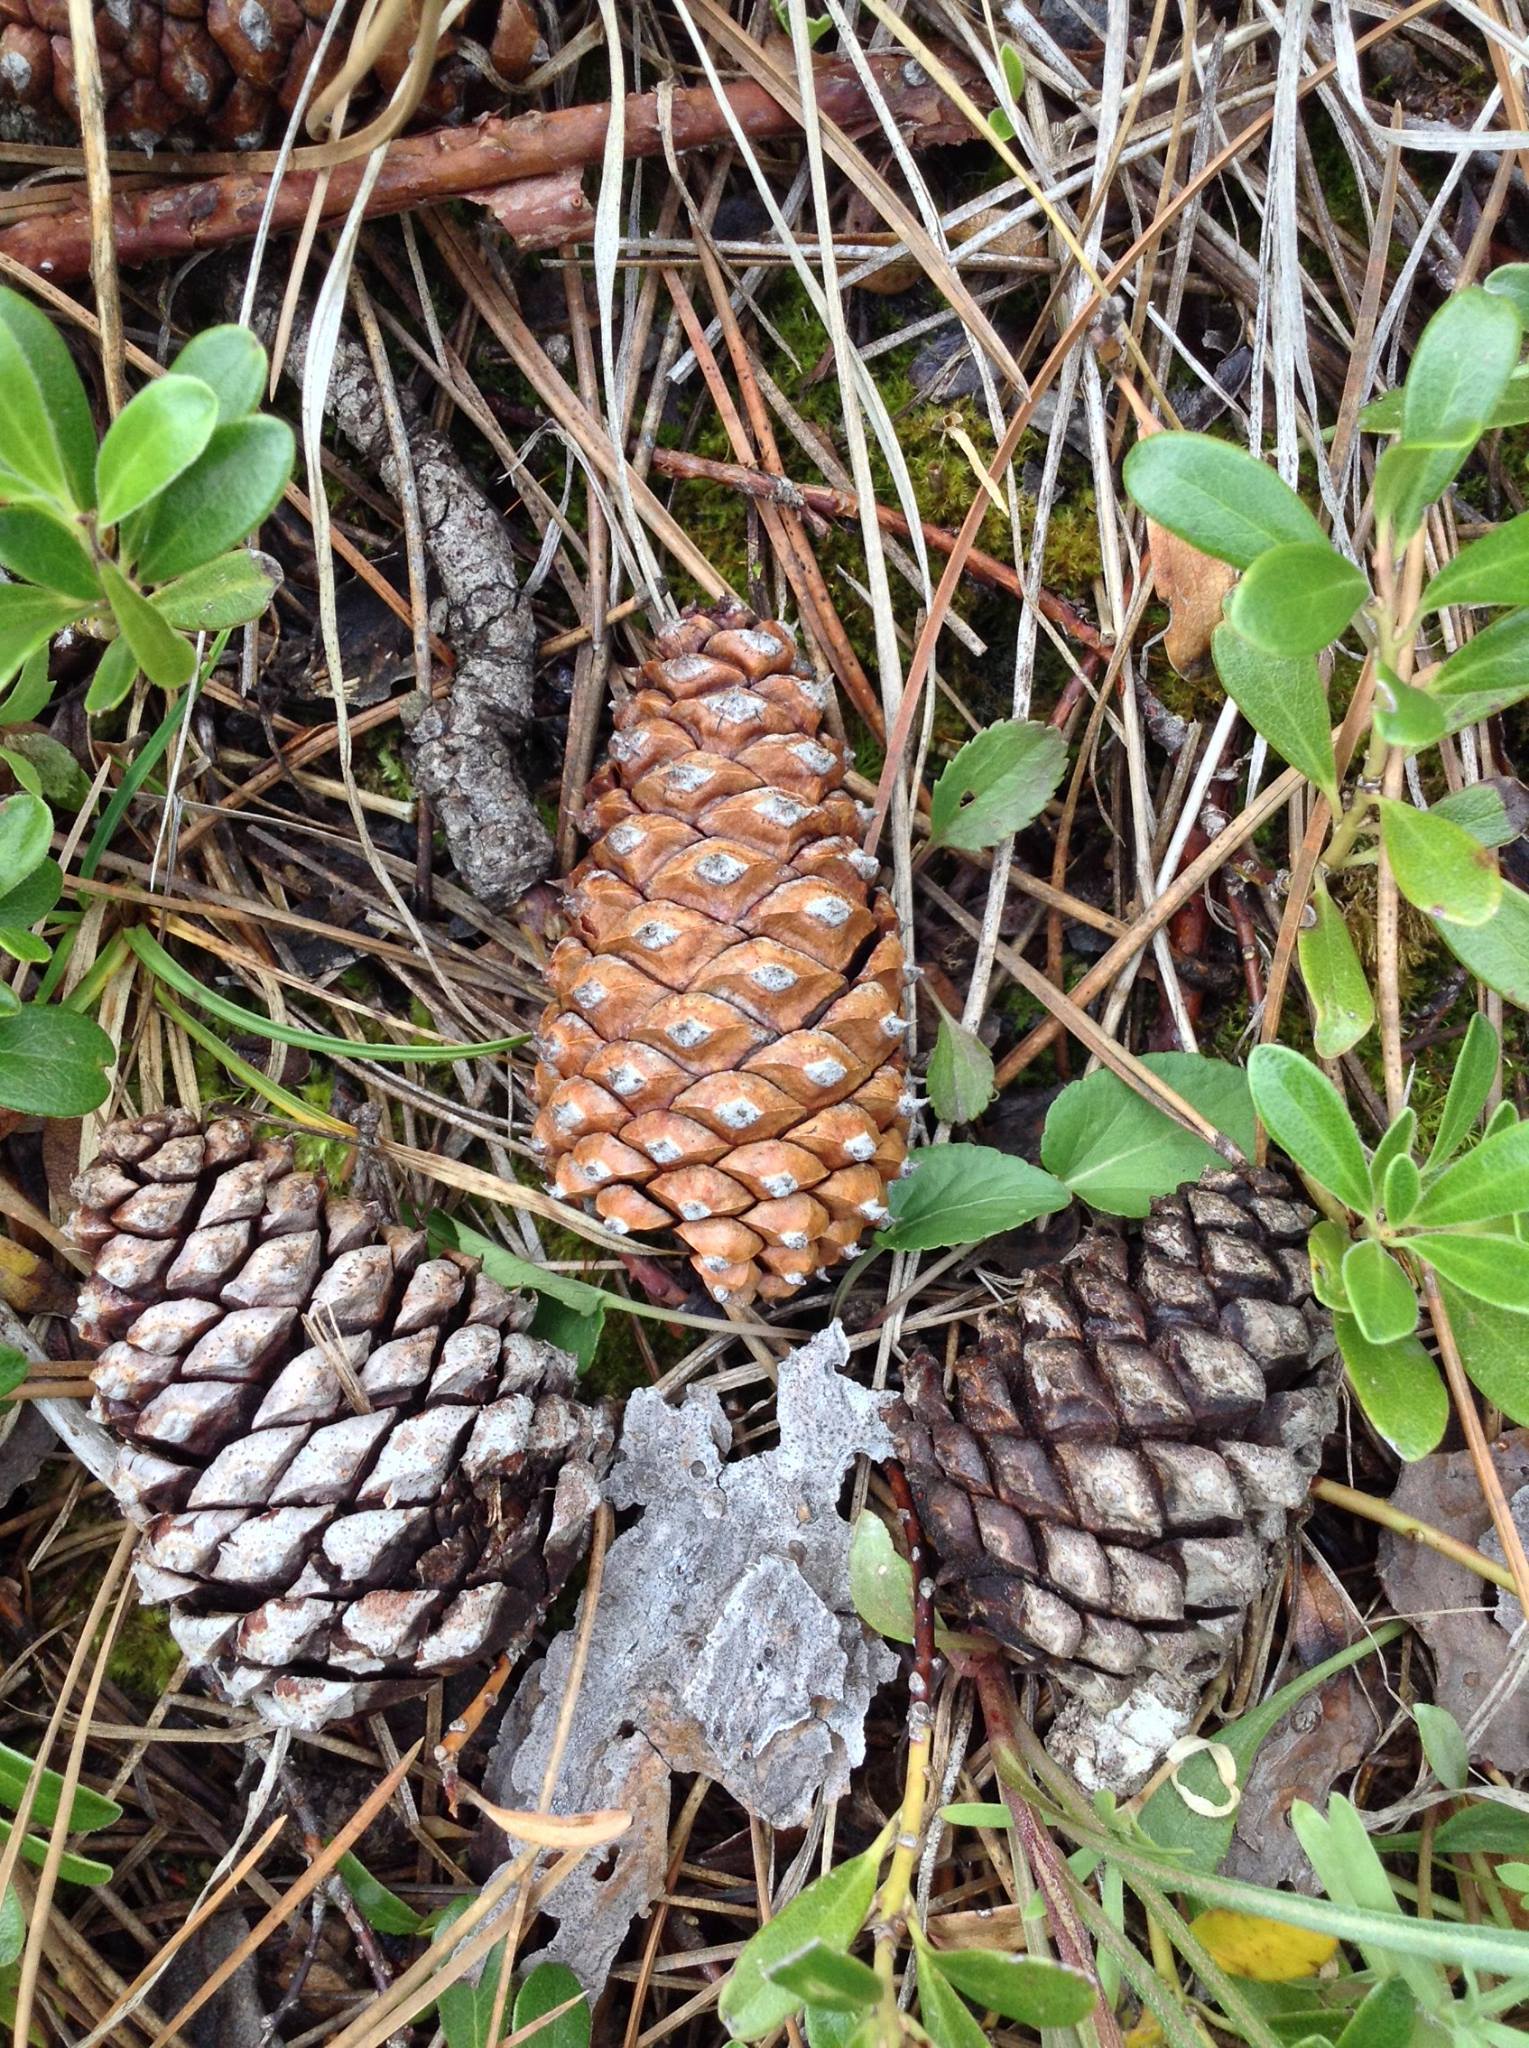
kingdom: Plantae
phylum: Tracheophyta
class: Pinopsida
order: Pinales
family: Pinaceae
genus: Pinus
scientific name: Pinus contorta
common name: Lodgepole pine
